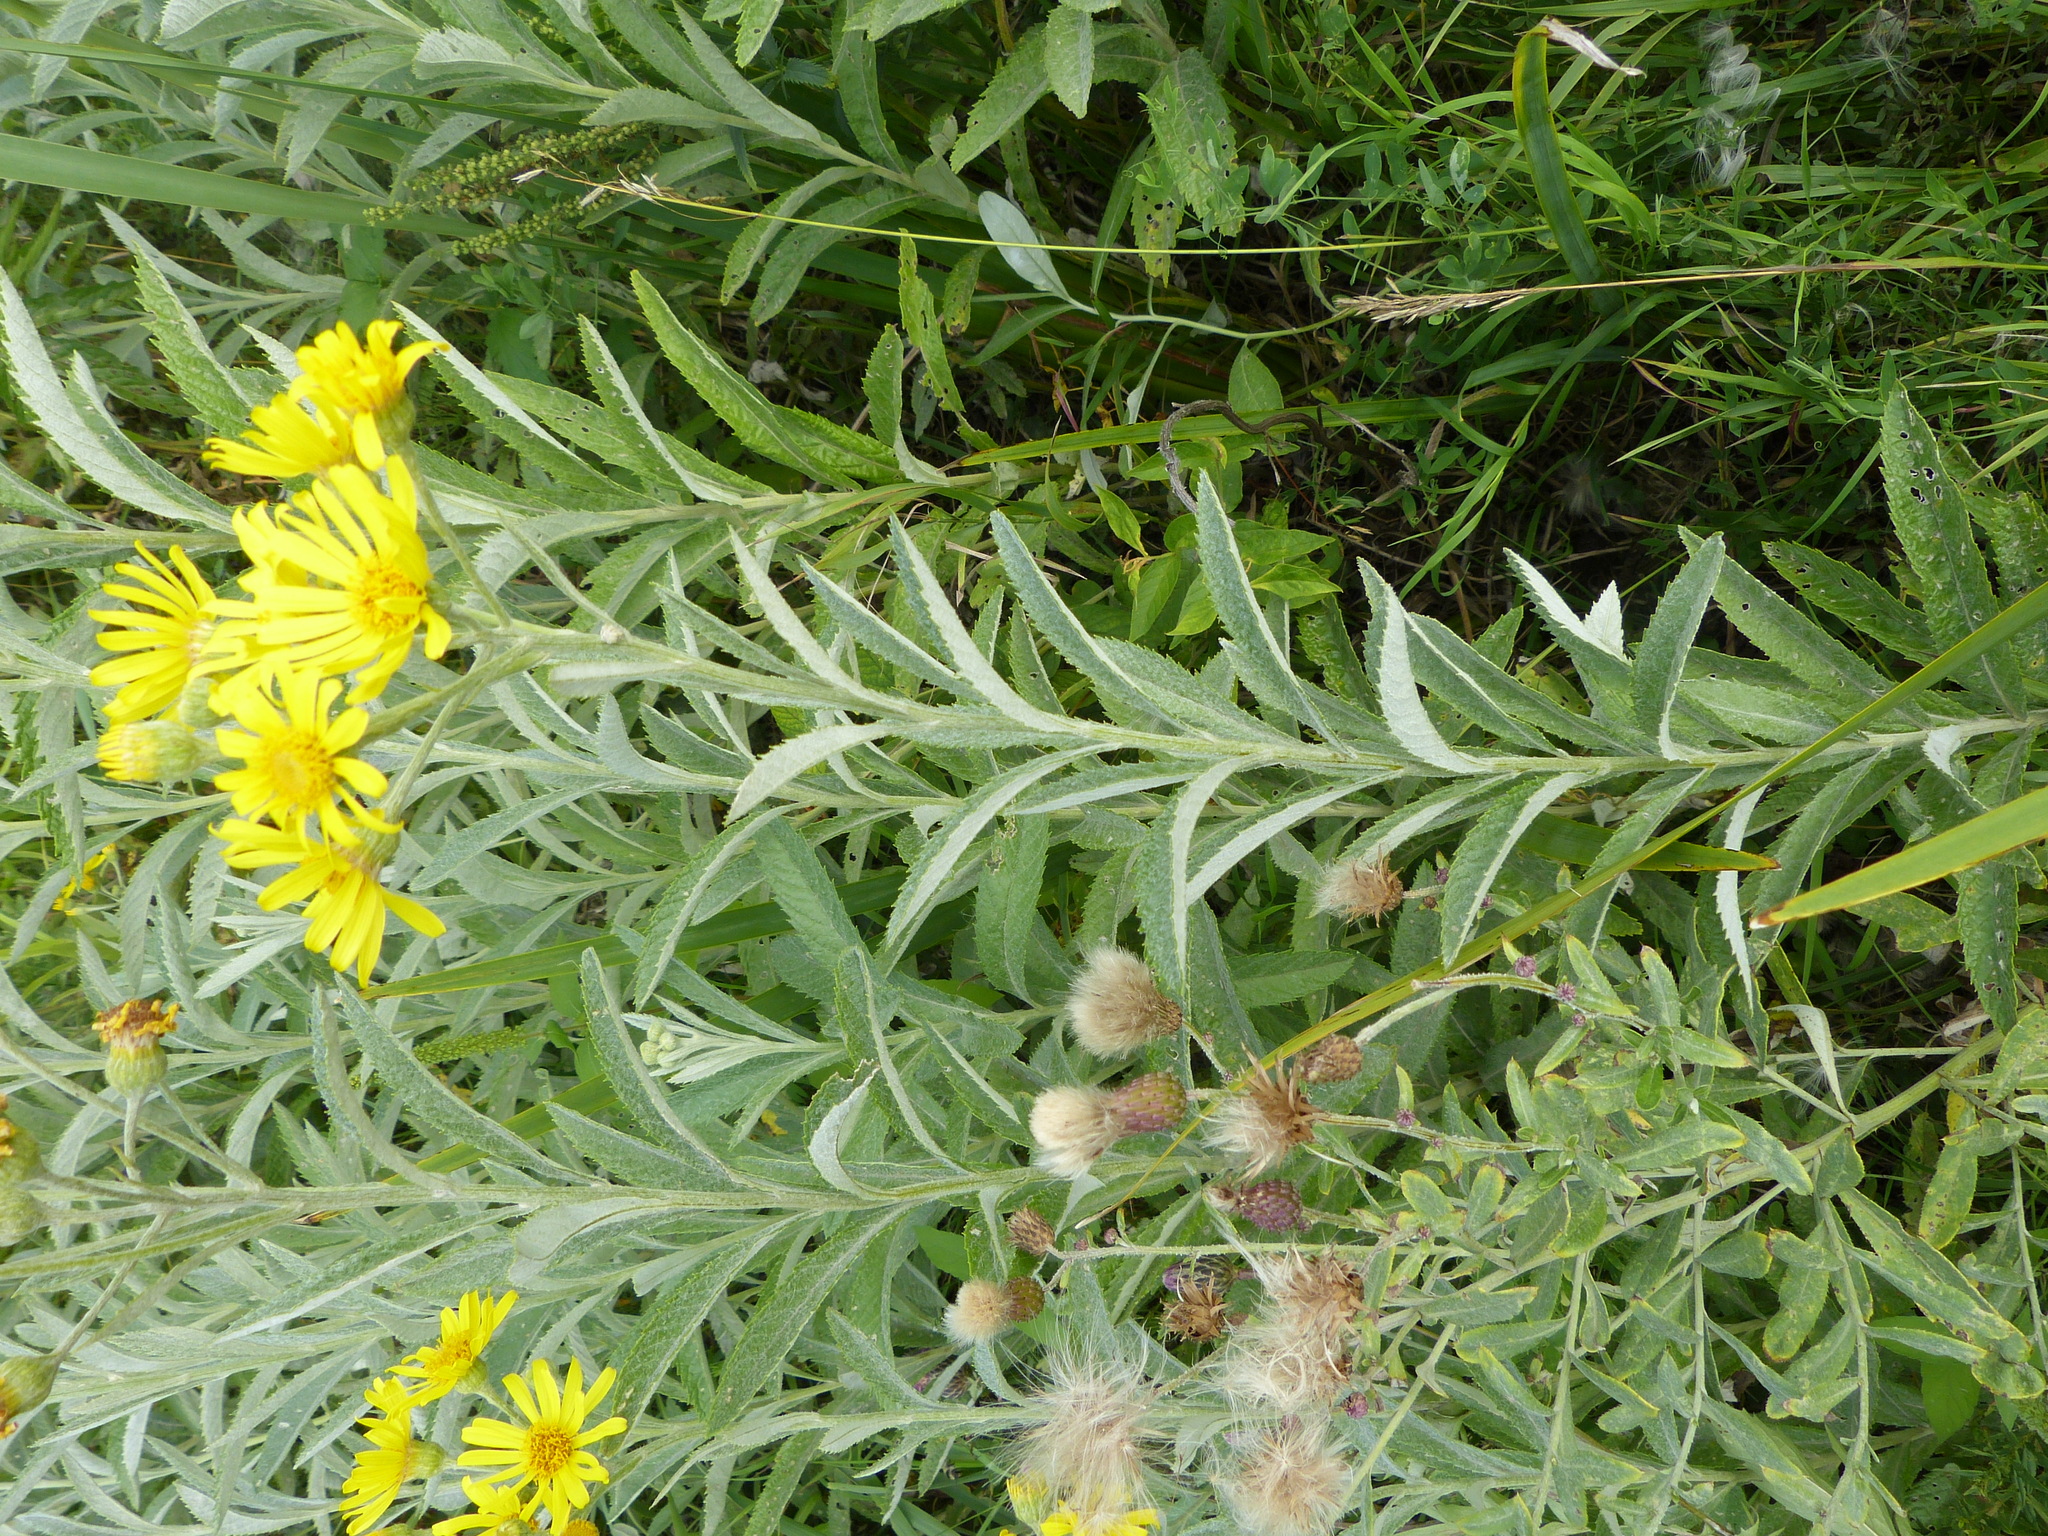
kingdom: Plantae
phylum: Tracheophyta
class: Magnoliopsida
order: Asterales
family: Asteraceae
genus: Jacobaea
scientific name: Jacobaea paludosa
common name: Fen ragwort
